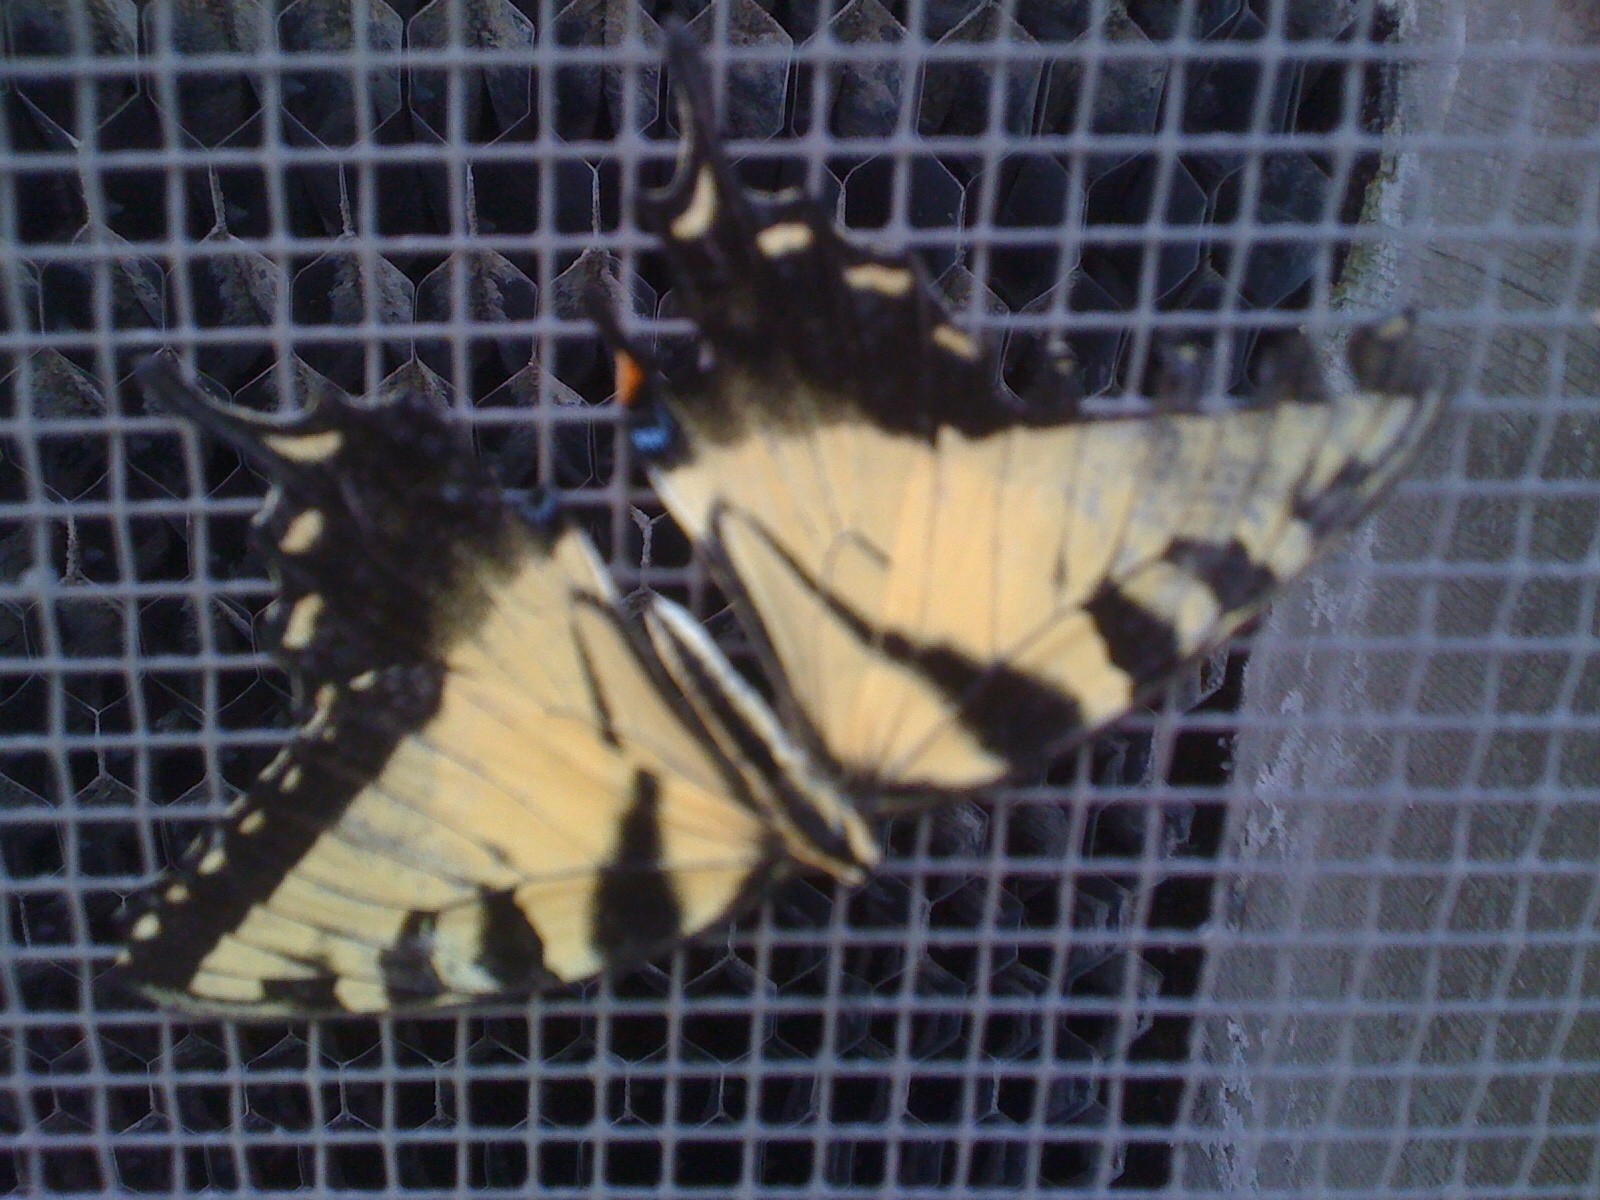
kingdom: Animalia
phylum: Arthropoda
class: Insecta
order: Lepidoptera
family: Papilionidae
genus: Papilio
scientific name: Papilio glaucus
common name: Tiger swallowtail
